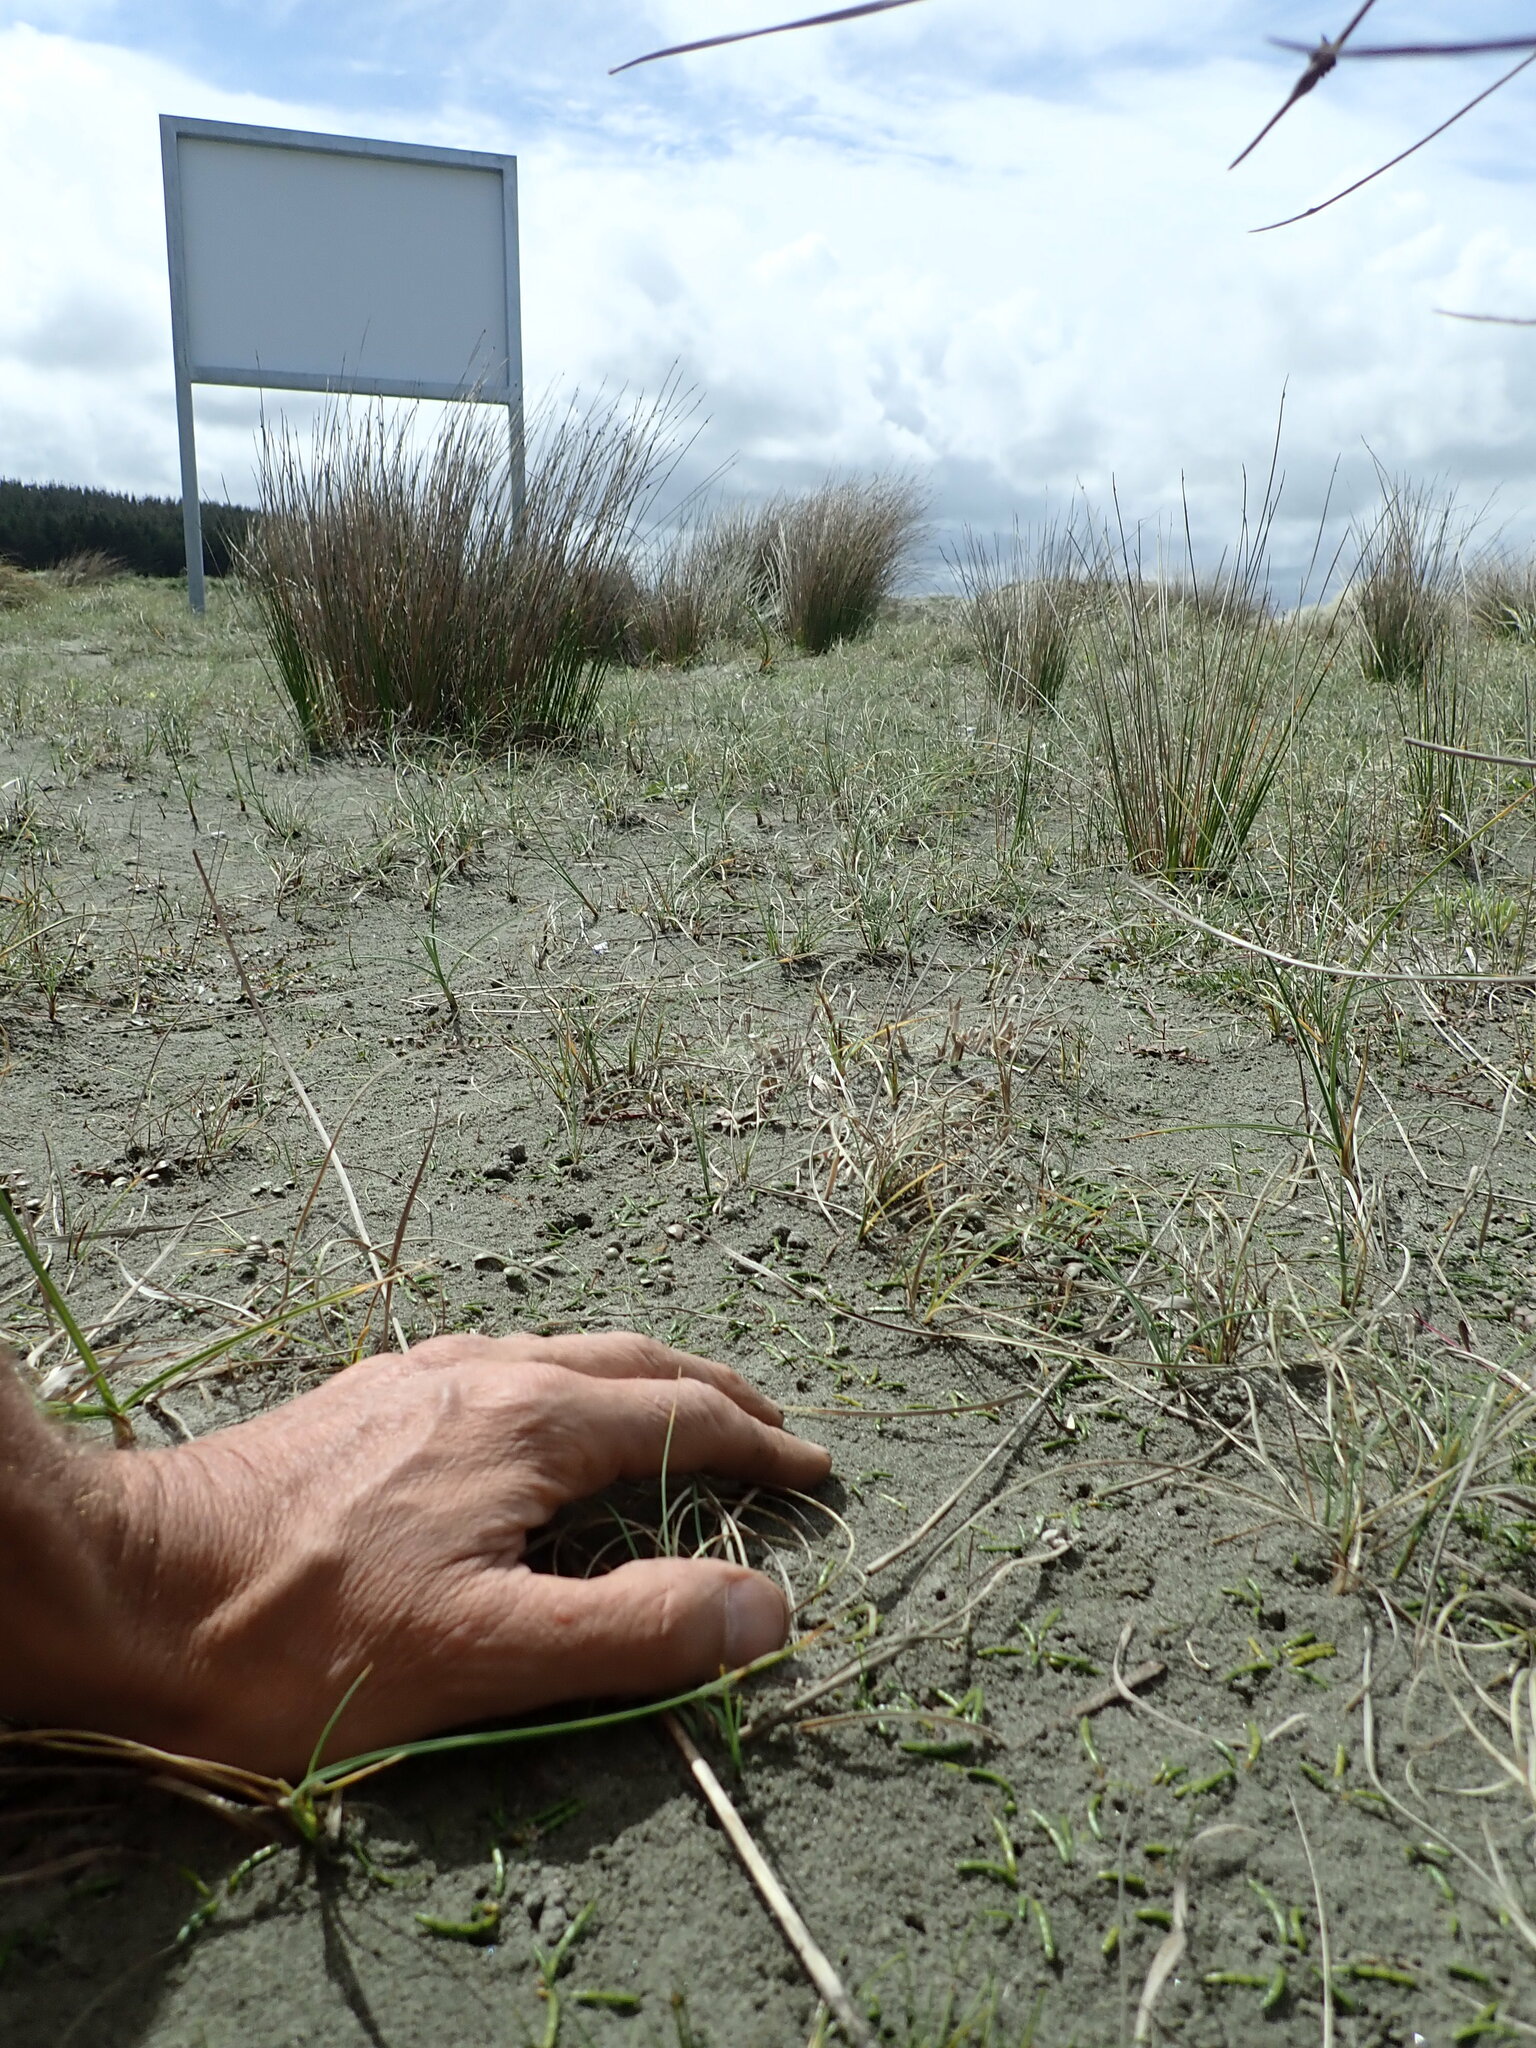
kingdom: Plantae
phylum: Tracheophyta
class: Magnoliopsida
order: Apiales
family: Apiaceae
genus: Lilaeopsis
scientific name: Lilaeopsis novae-zelandiae
